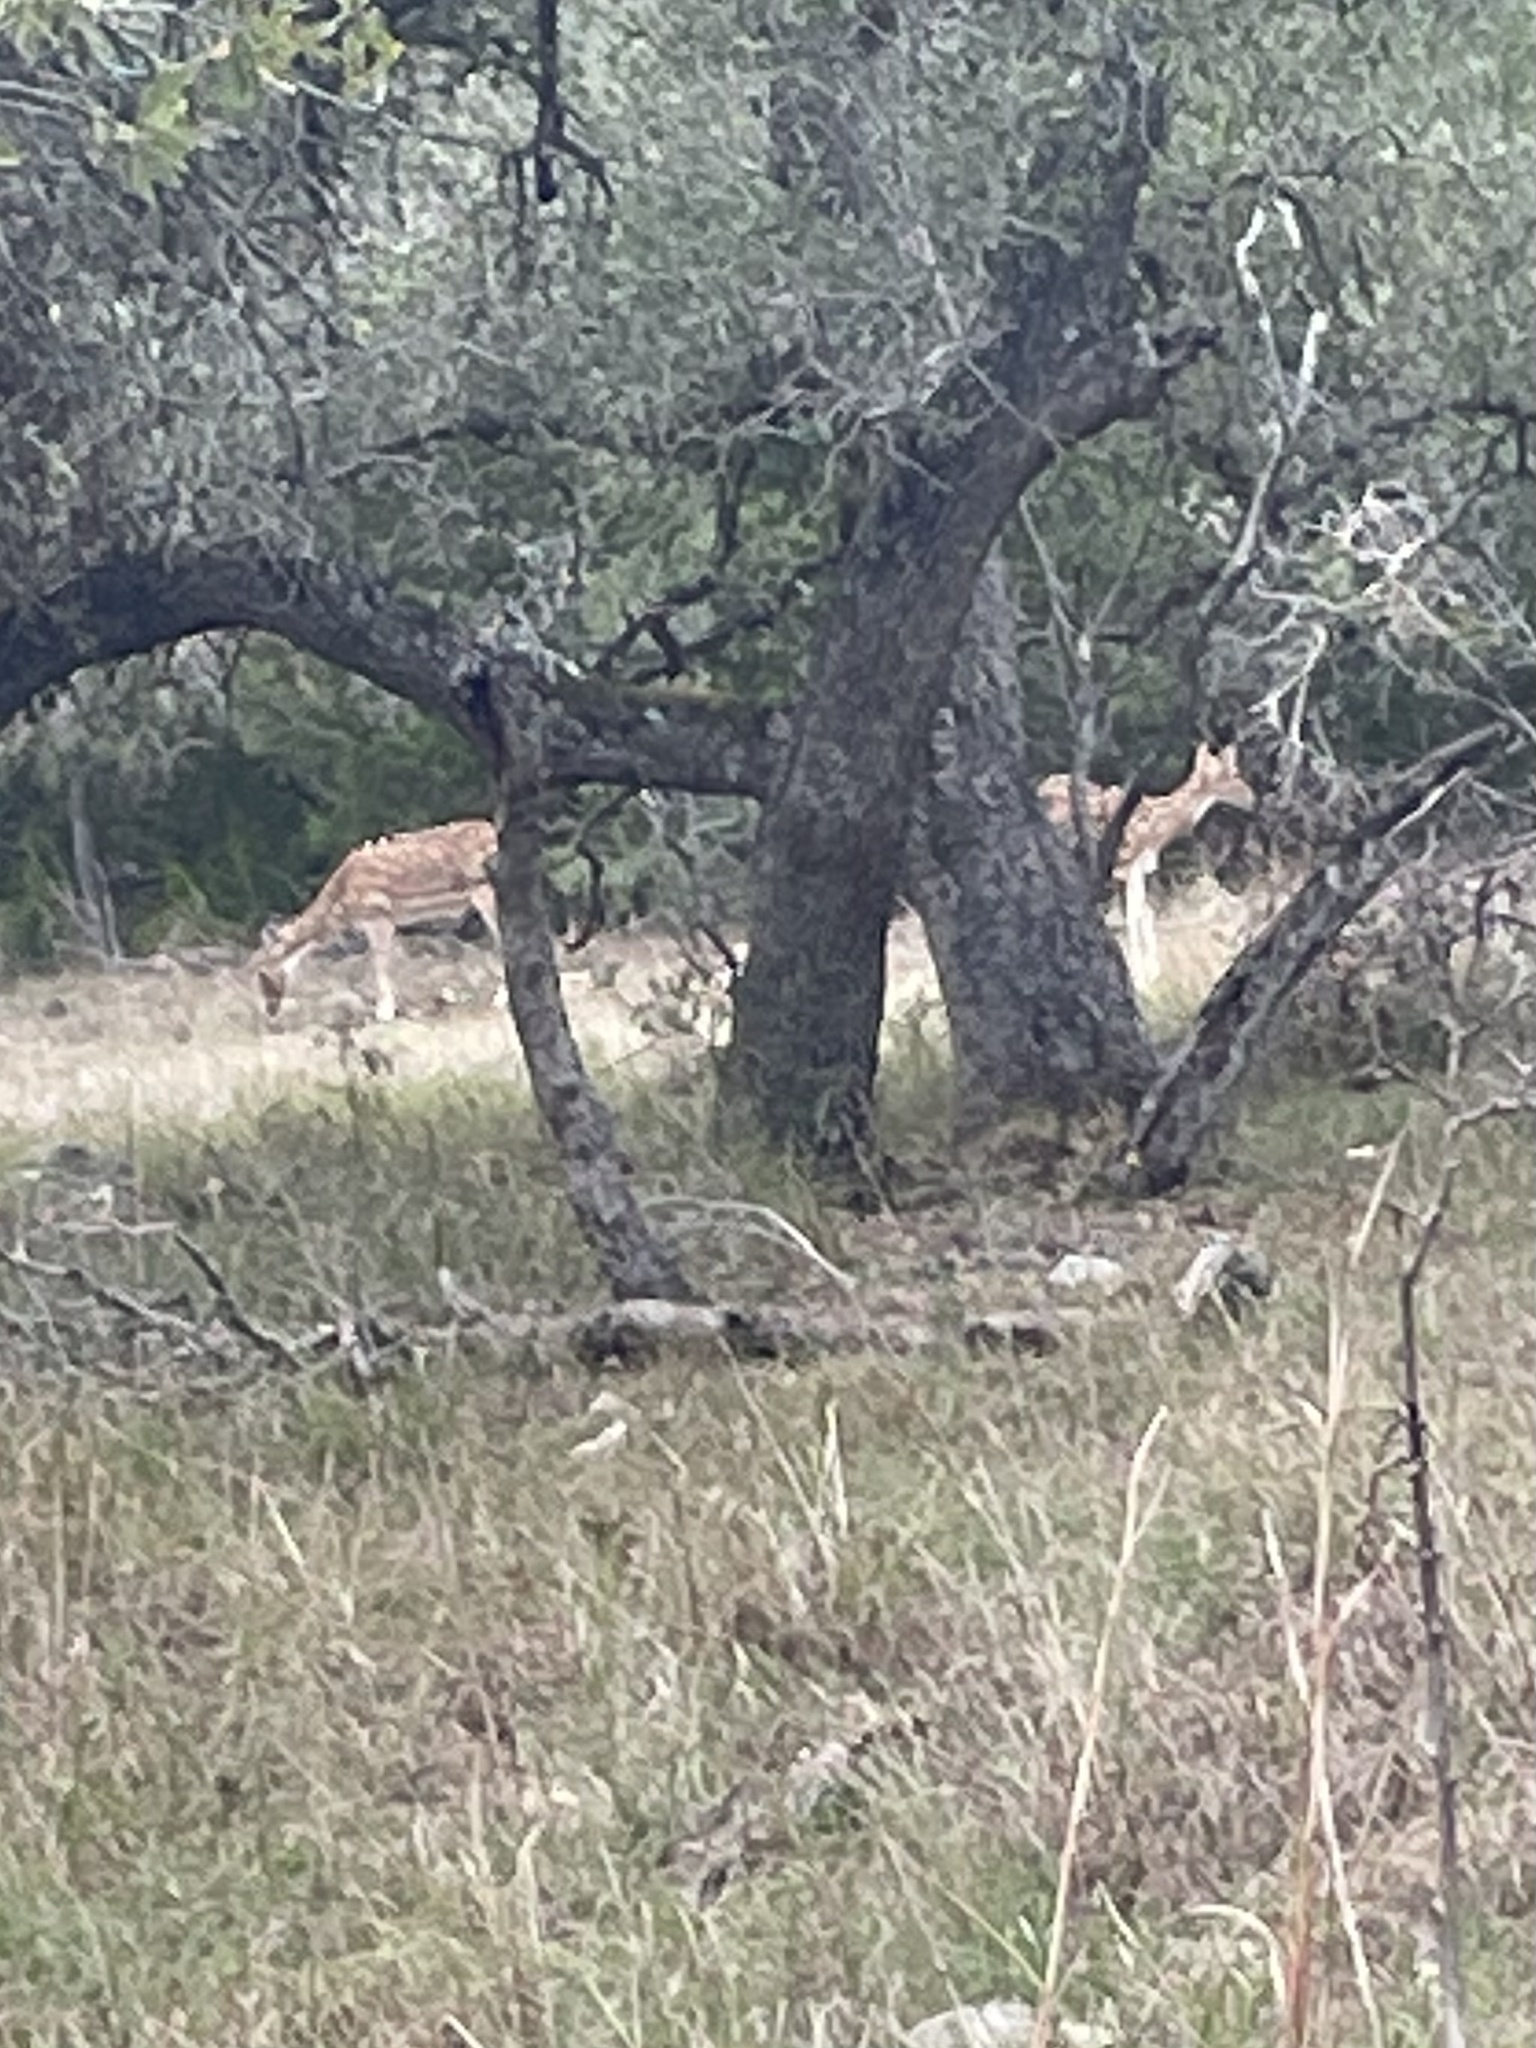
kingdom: Animalia
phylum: Chordata
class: Mammalia
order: Artiodactyla
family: Cervidae
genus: Axis
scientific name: Axis axis
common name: Chital
